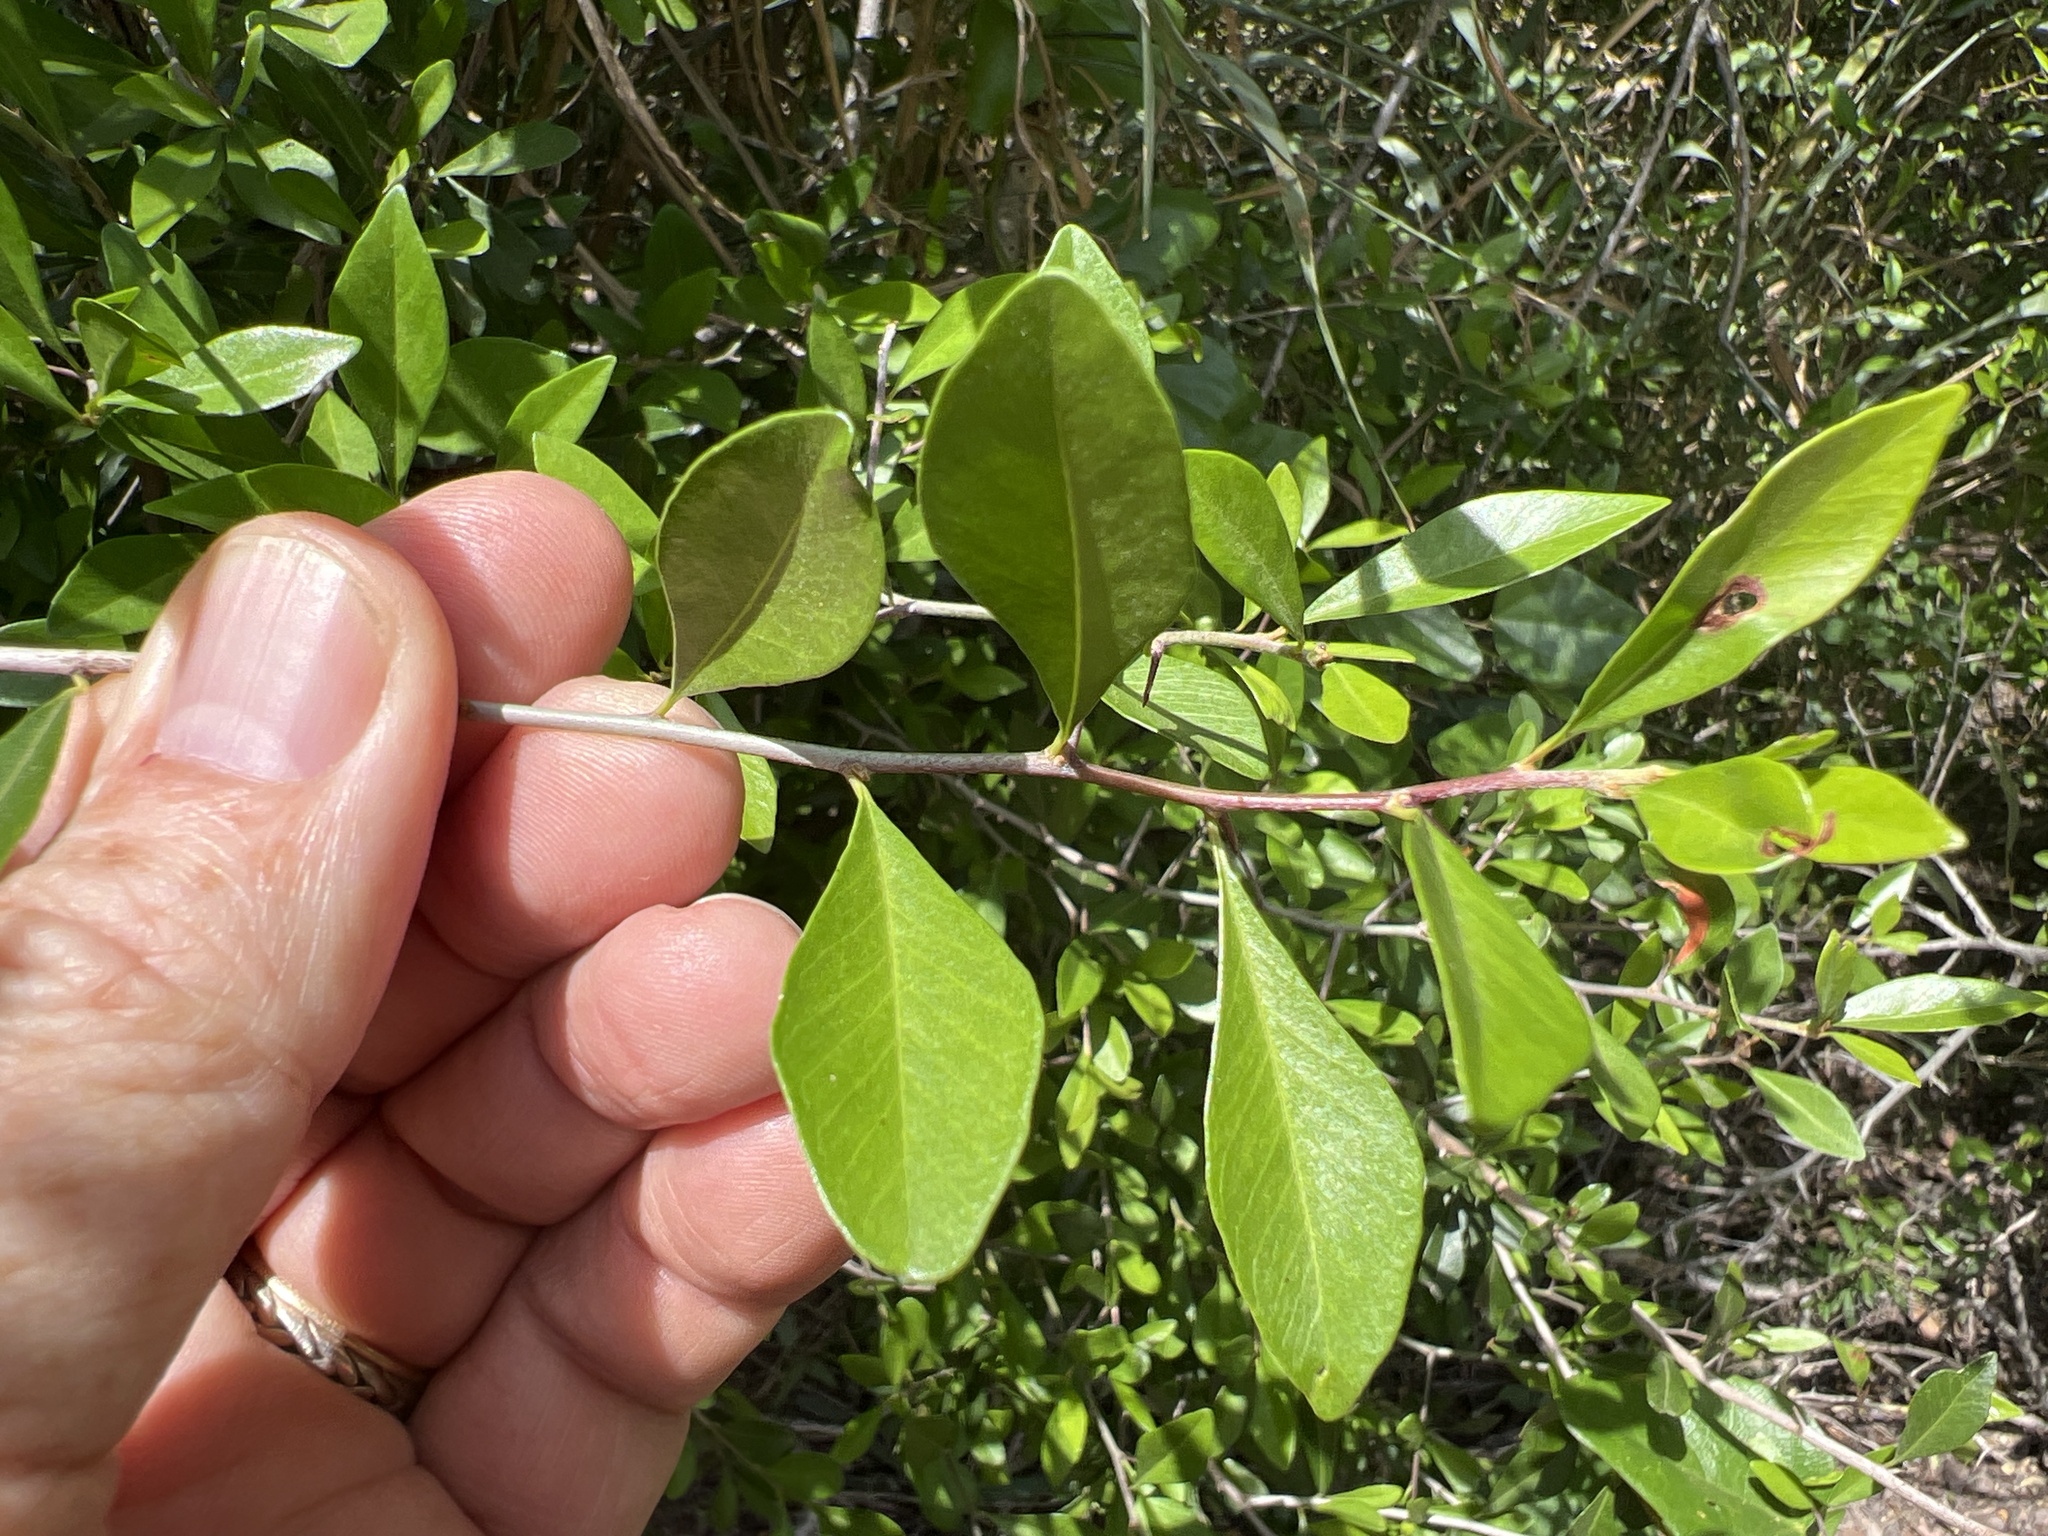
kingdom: Plantae
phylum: Tracheophyta
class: Magnoliopsida
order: Ericales
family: Sapotaceae
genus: Sideroxylon
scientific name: Sideroxylon celastrinum
